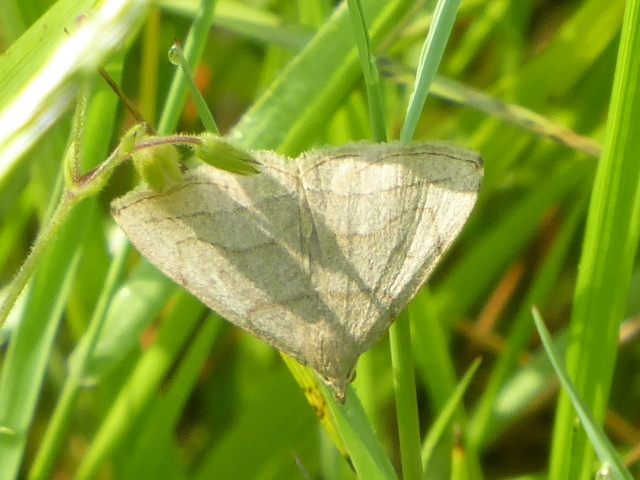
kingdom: Animalia
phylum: Arthropoda
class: Insecta
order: Lepidoptera
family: Erebidae
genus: Zanclognatha
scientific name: Zanclognatha pedipilalis
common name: Grayish fan-foot
